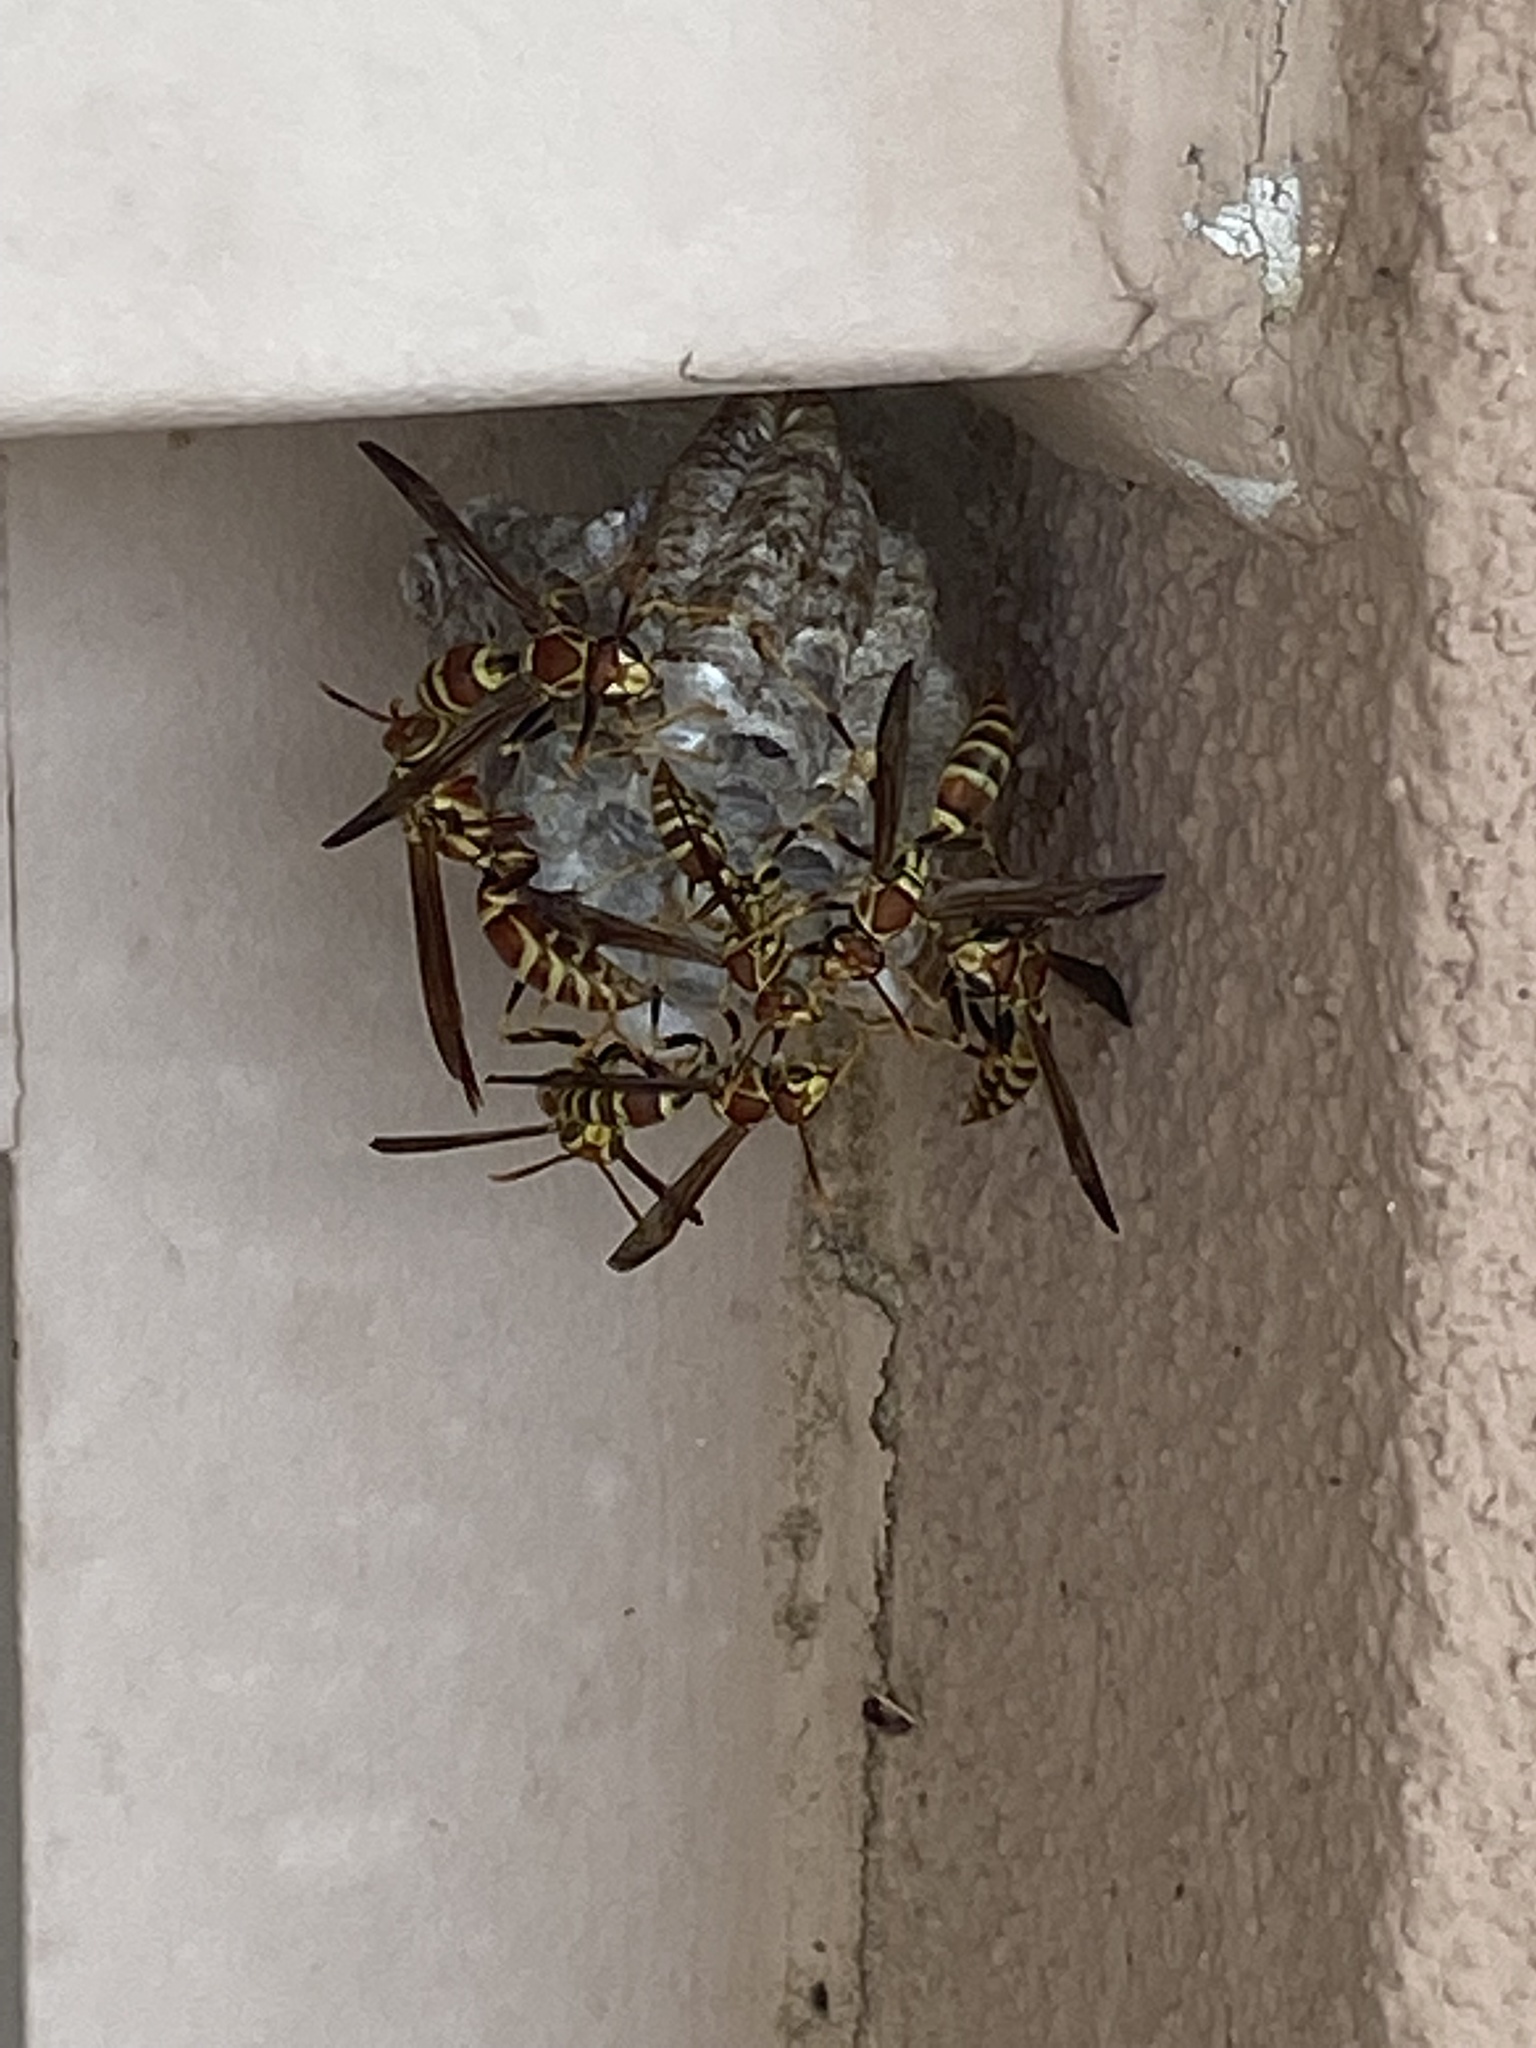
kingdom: Animalia
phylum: Arthropoda
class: Insecta
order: Hymenoptera
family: Eumenidae
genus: Polistes
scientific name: Polistes exclamans
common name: Paper wasp
